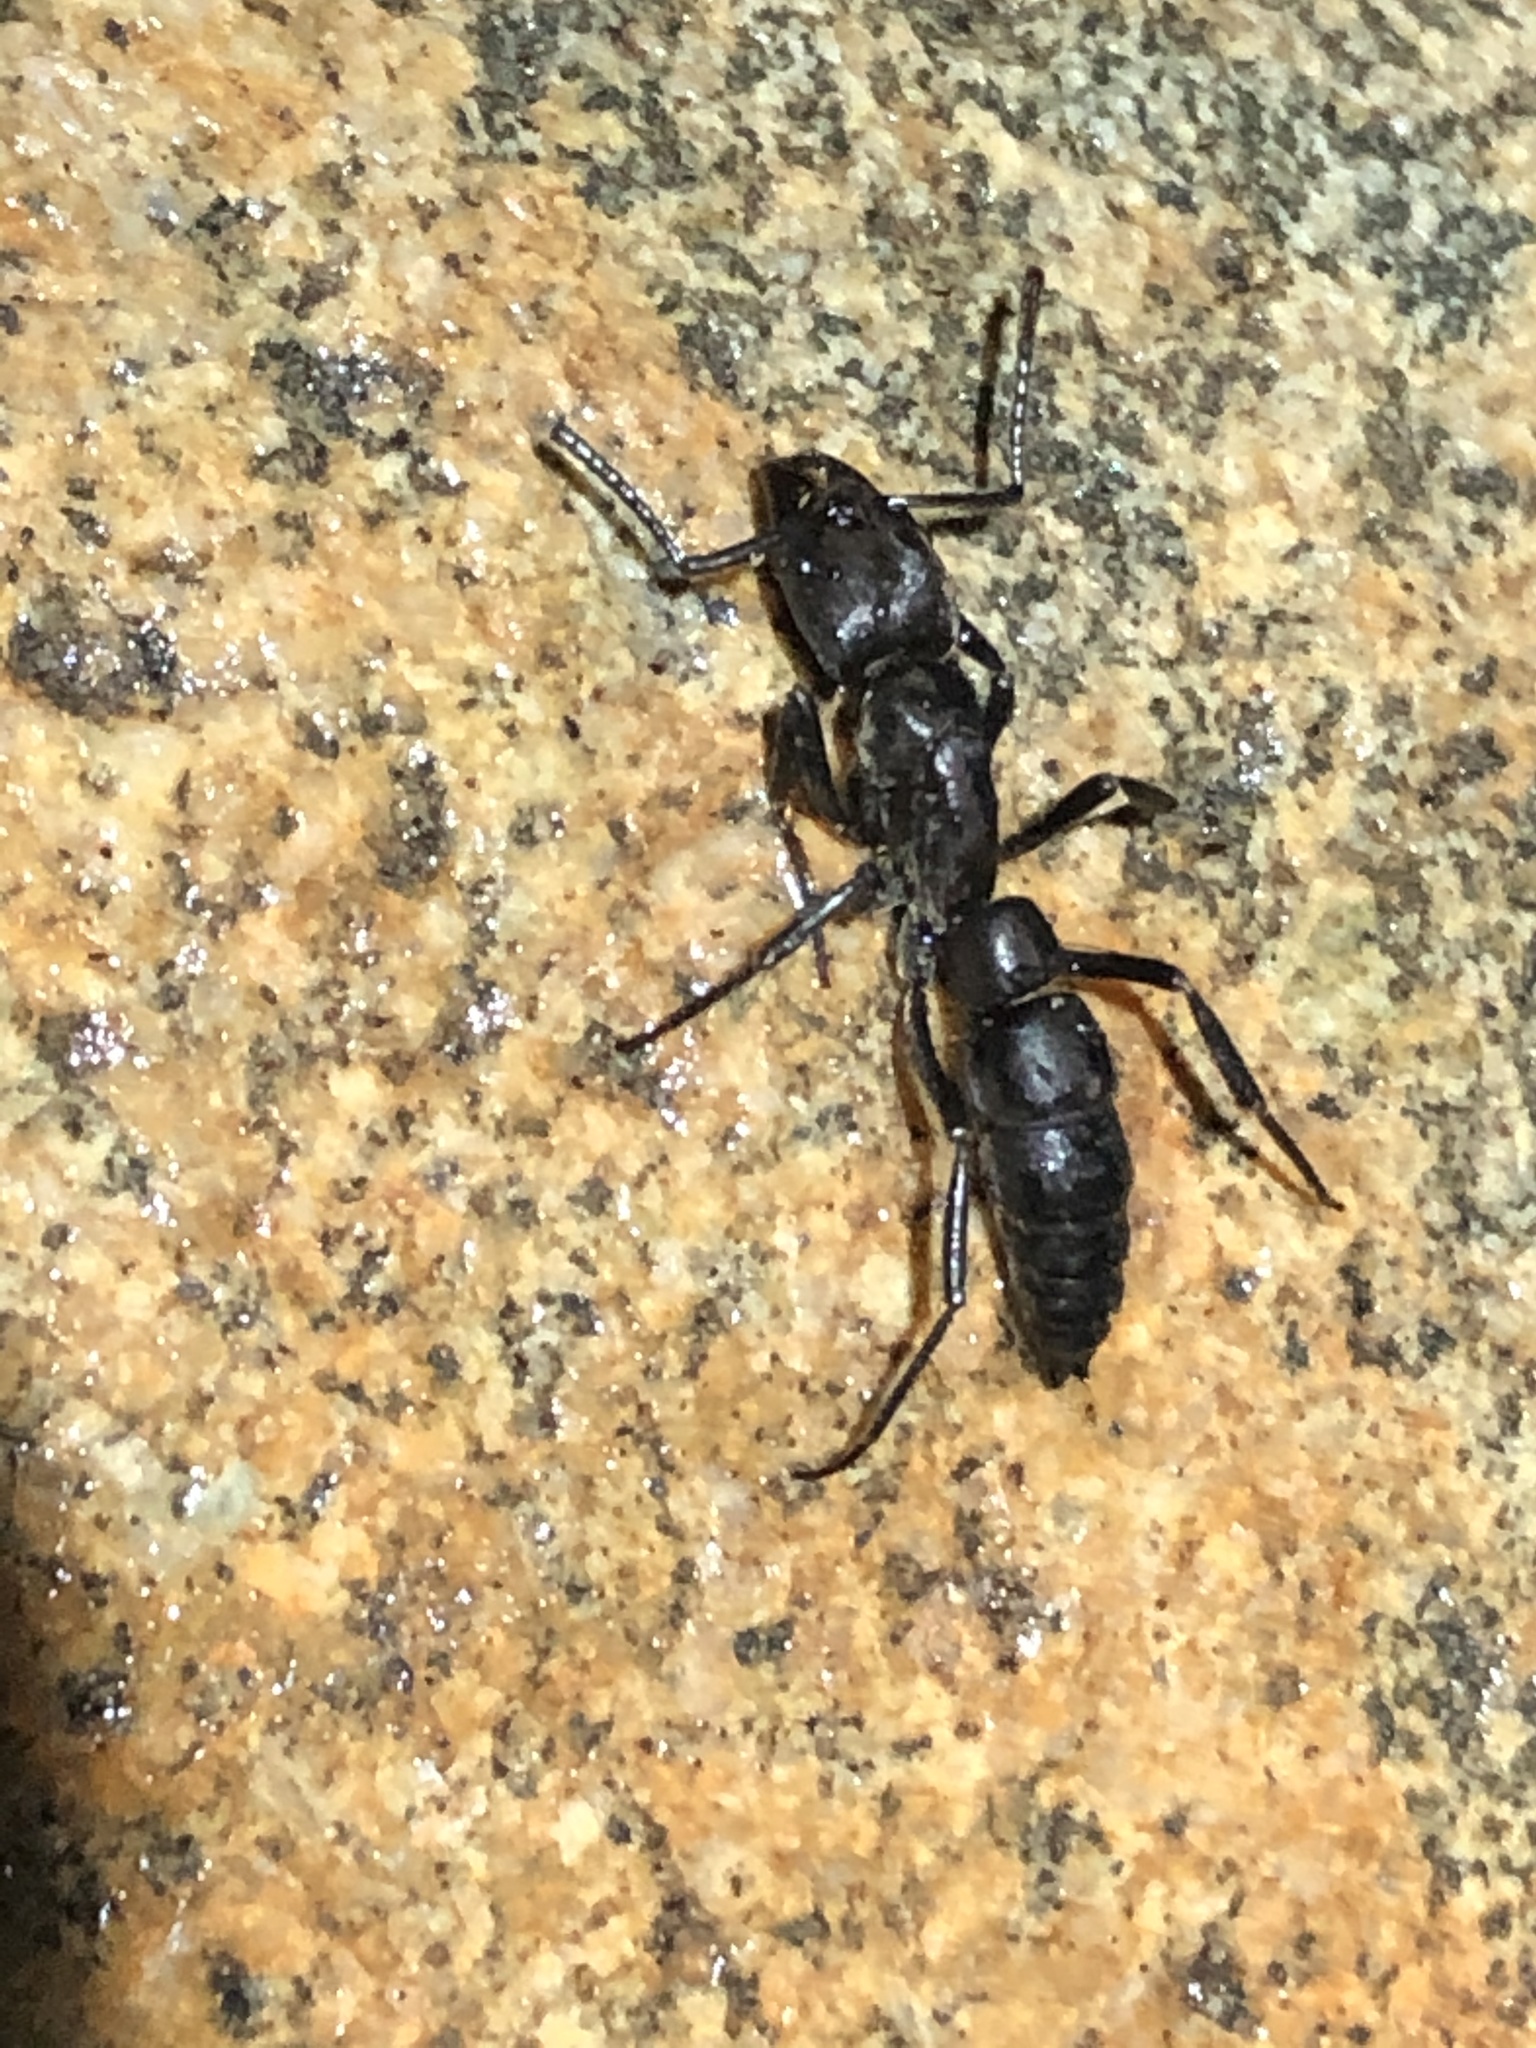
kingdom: Animalia
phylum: Arthropoda
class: Insecta
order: Hymenoptera
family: Formicidae
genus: Pachycondyla
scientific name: Pachycondyla crassinoda
